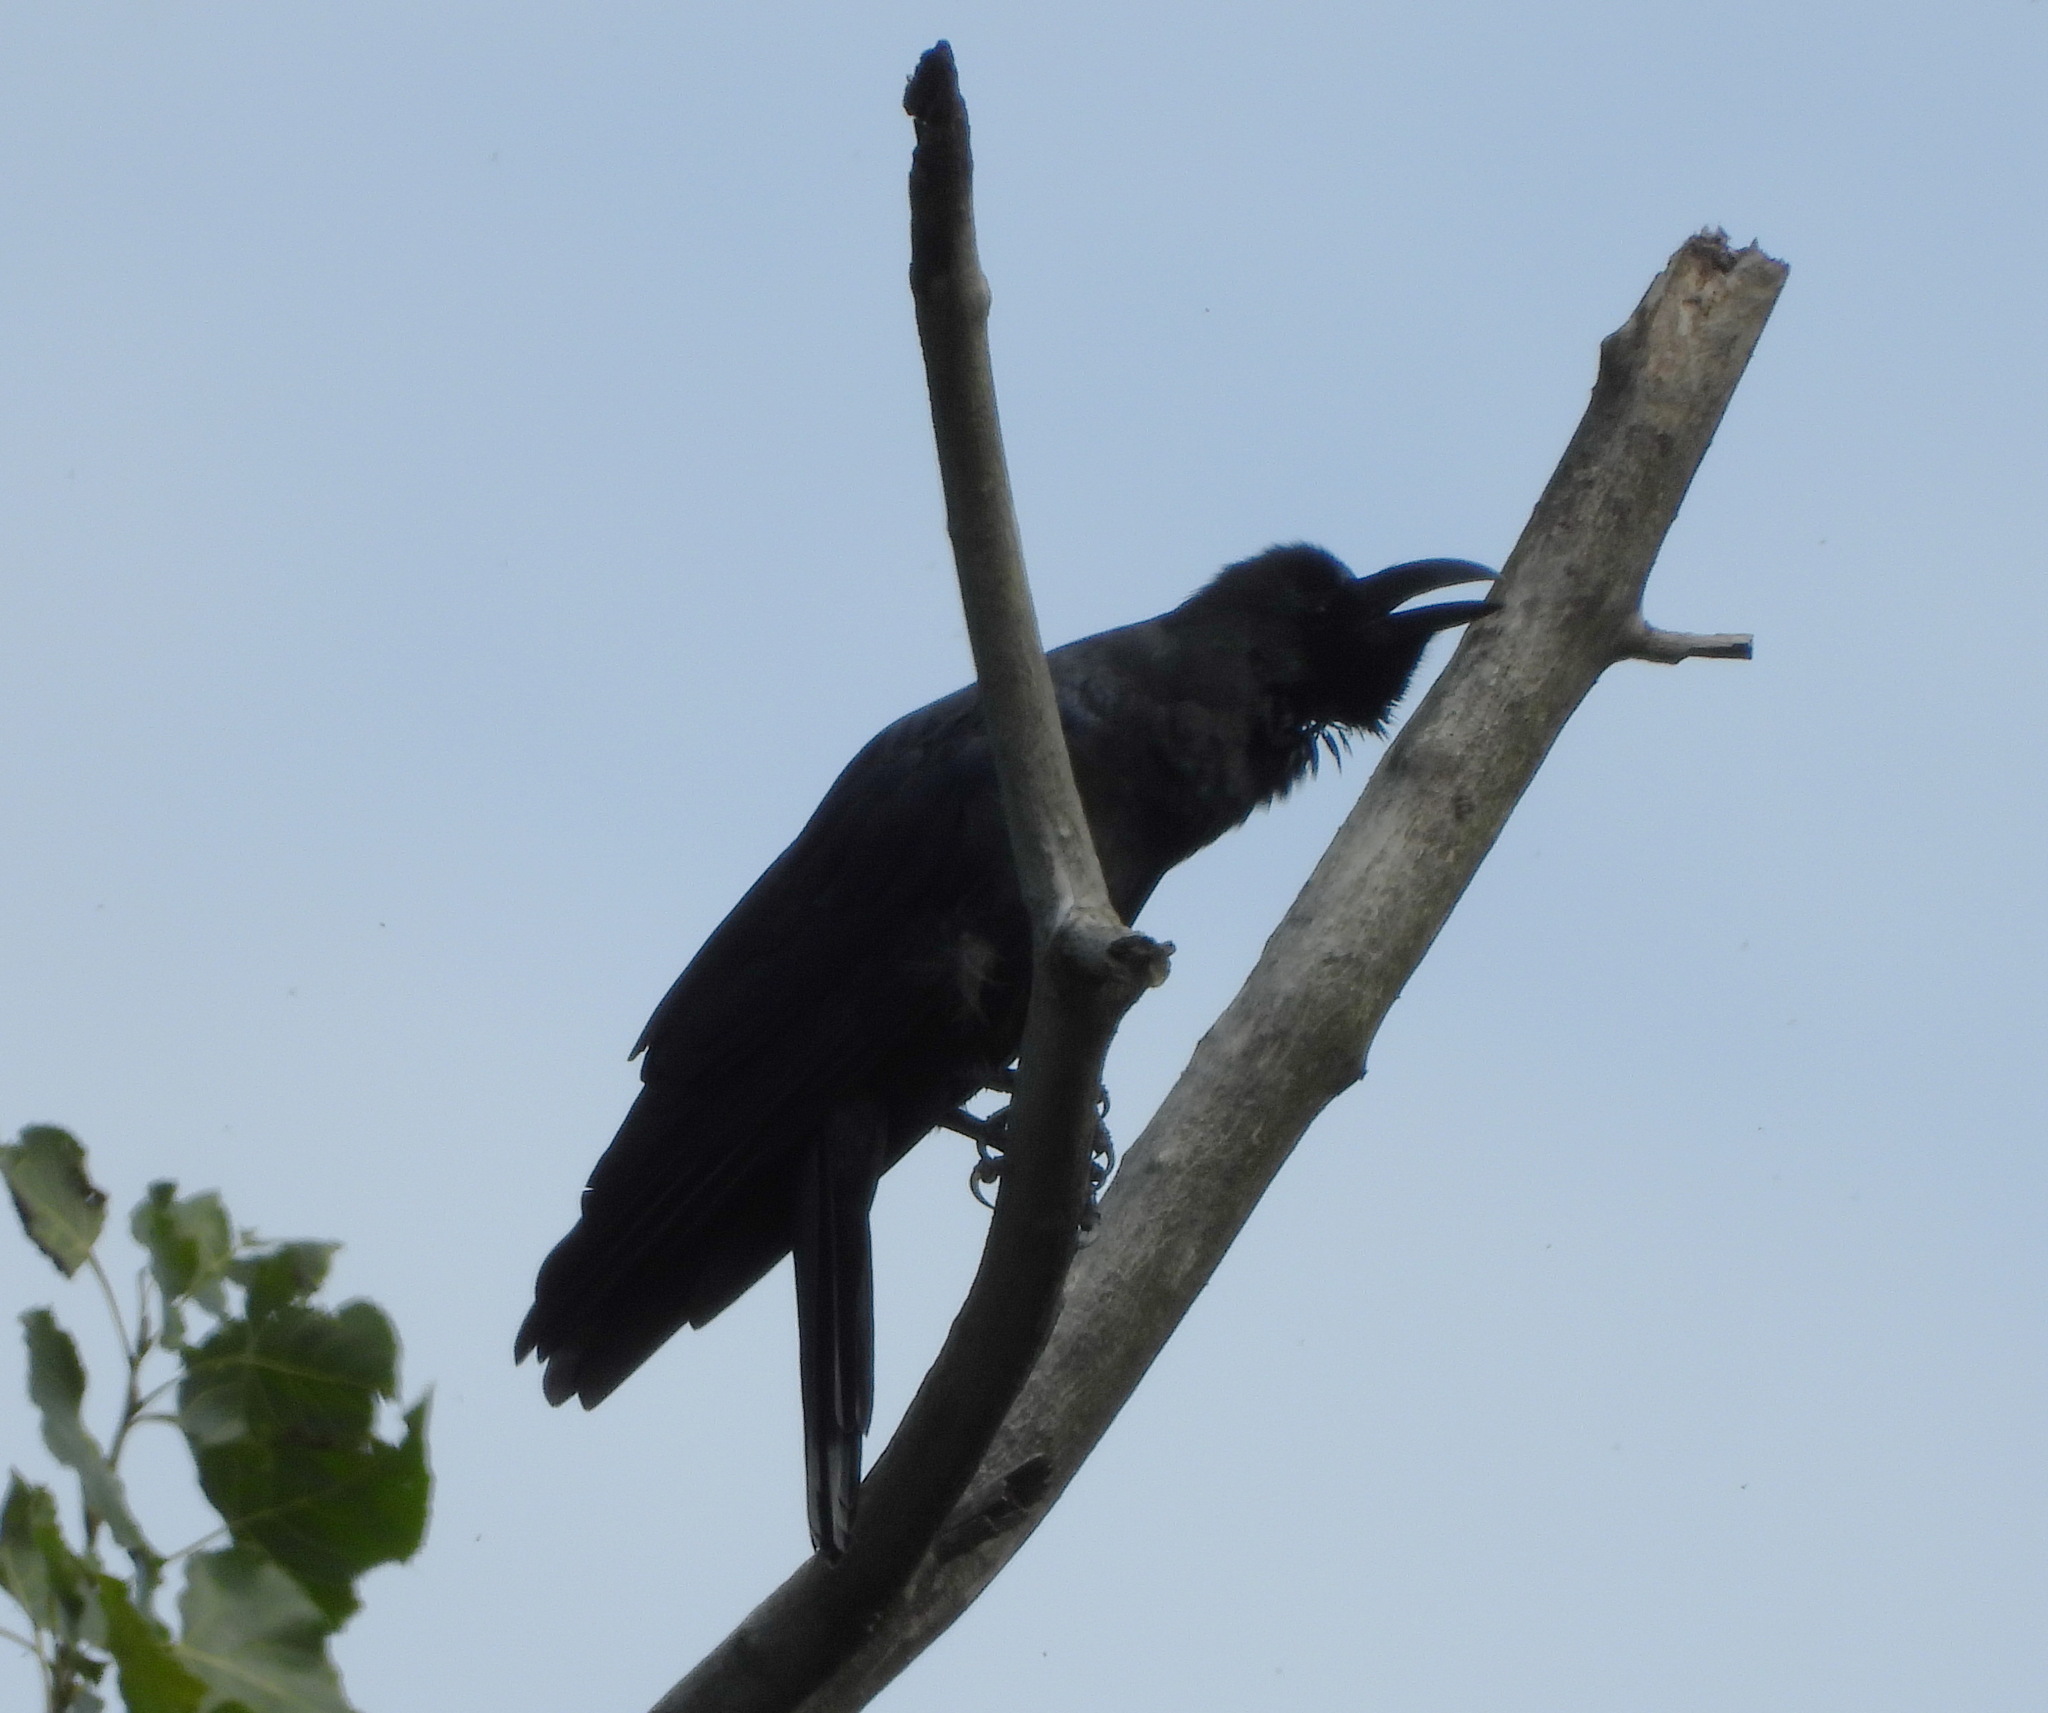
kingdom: Animalia
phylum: Chordata
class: Aves
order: Passeriformes
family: Corvidae
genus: Corvus
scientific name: Corvus macrorhynchos
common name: Large-billed crow
